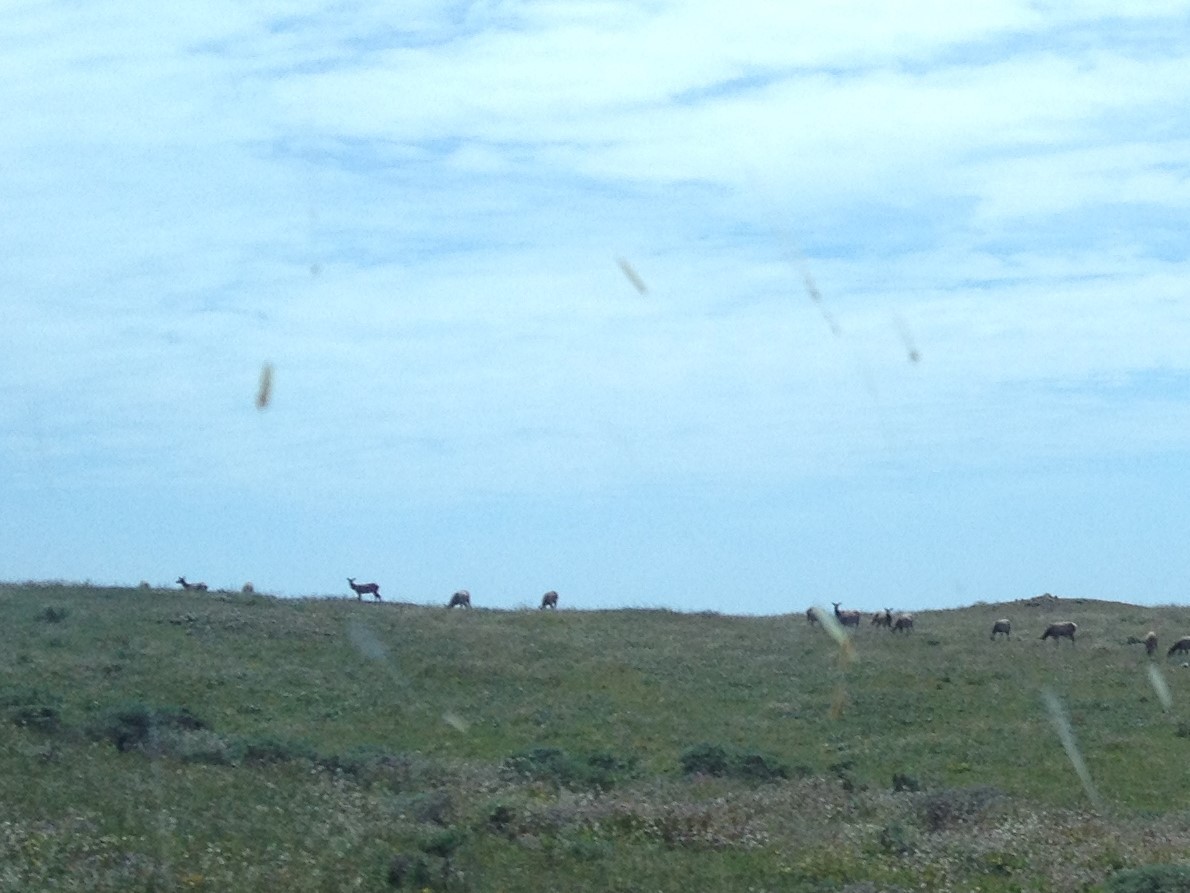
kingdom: Animalia
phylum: Chordata
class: Mammalia
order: Artiodactyla
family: Cervidae
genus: Cervus
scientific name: Cervus elaphus
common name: Red deer
